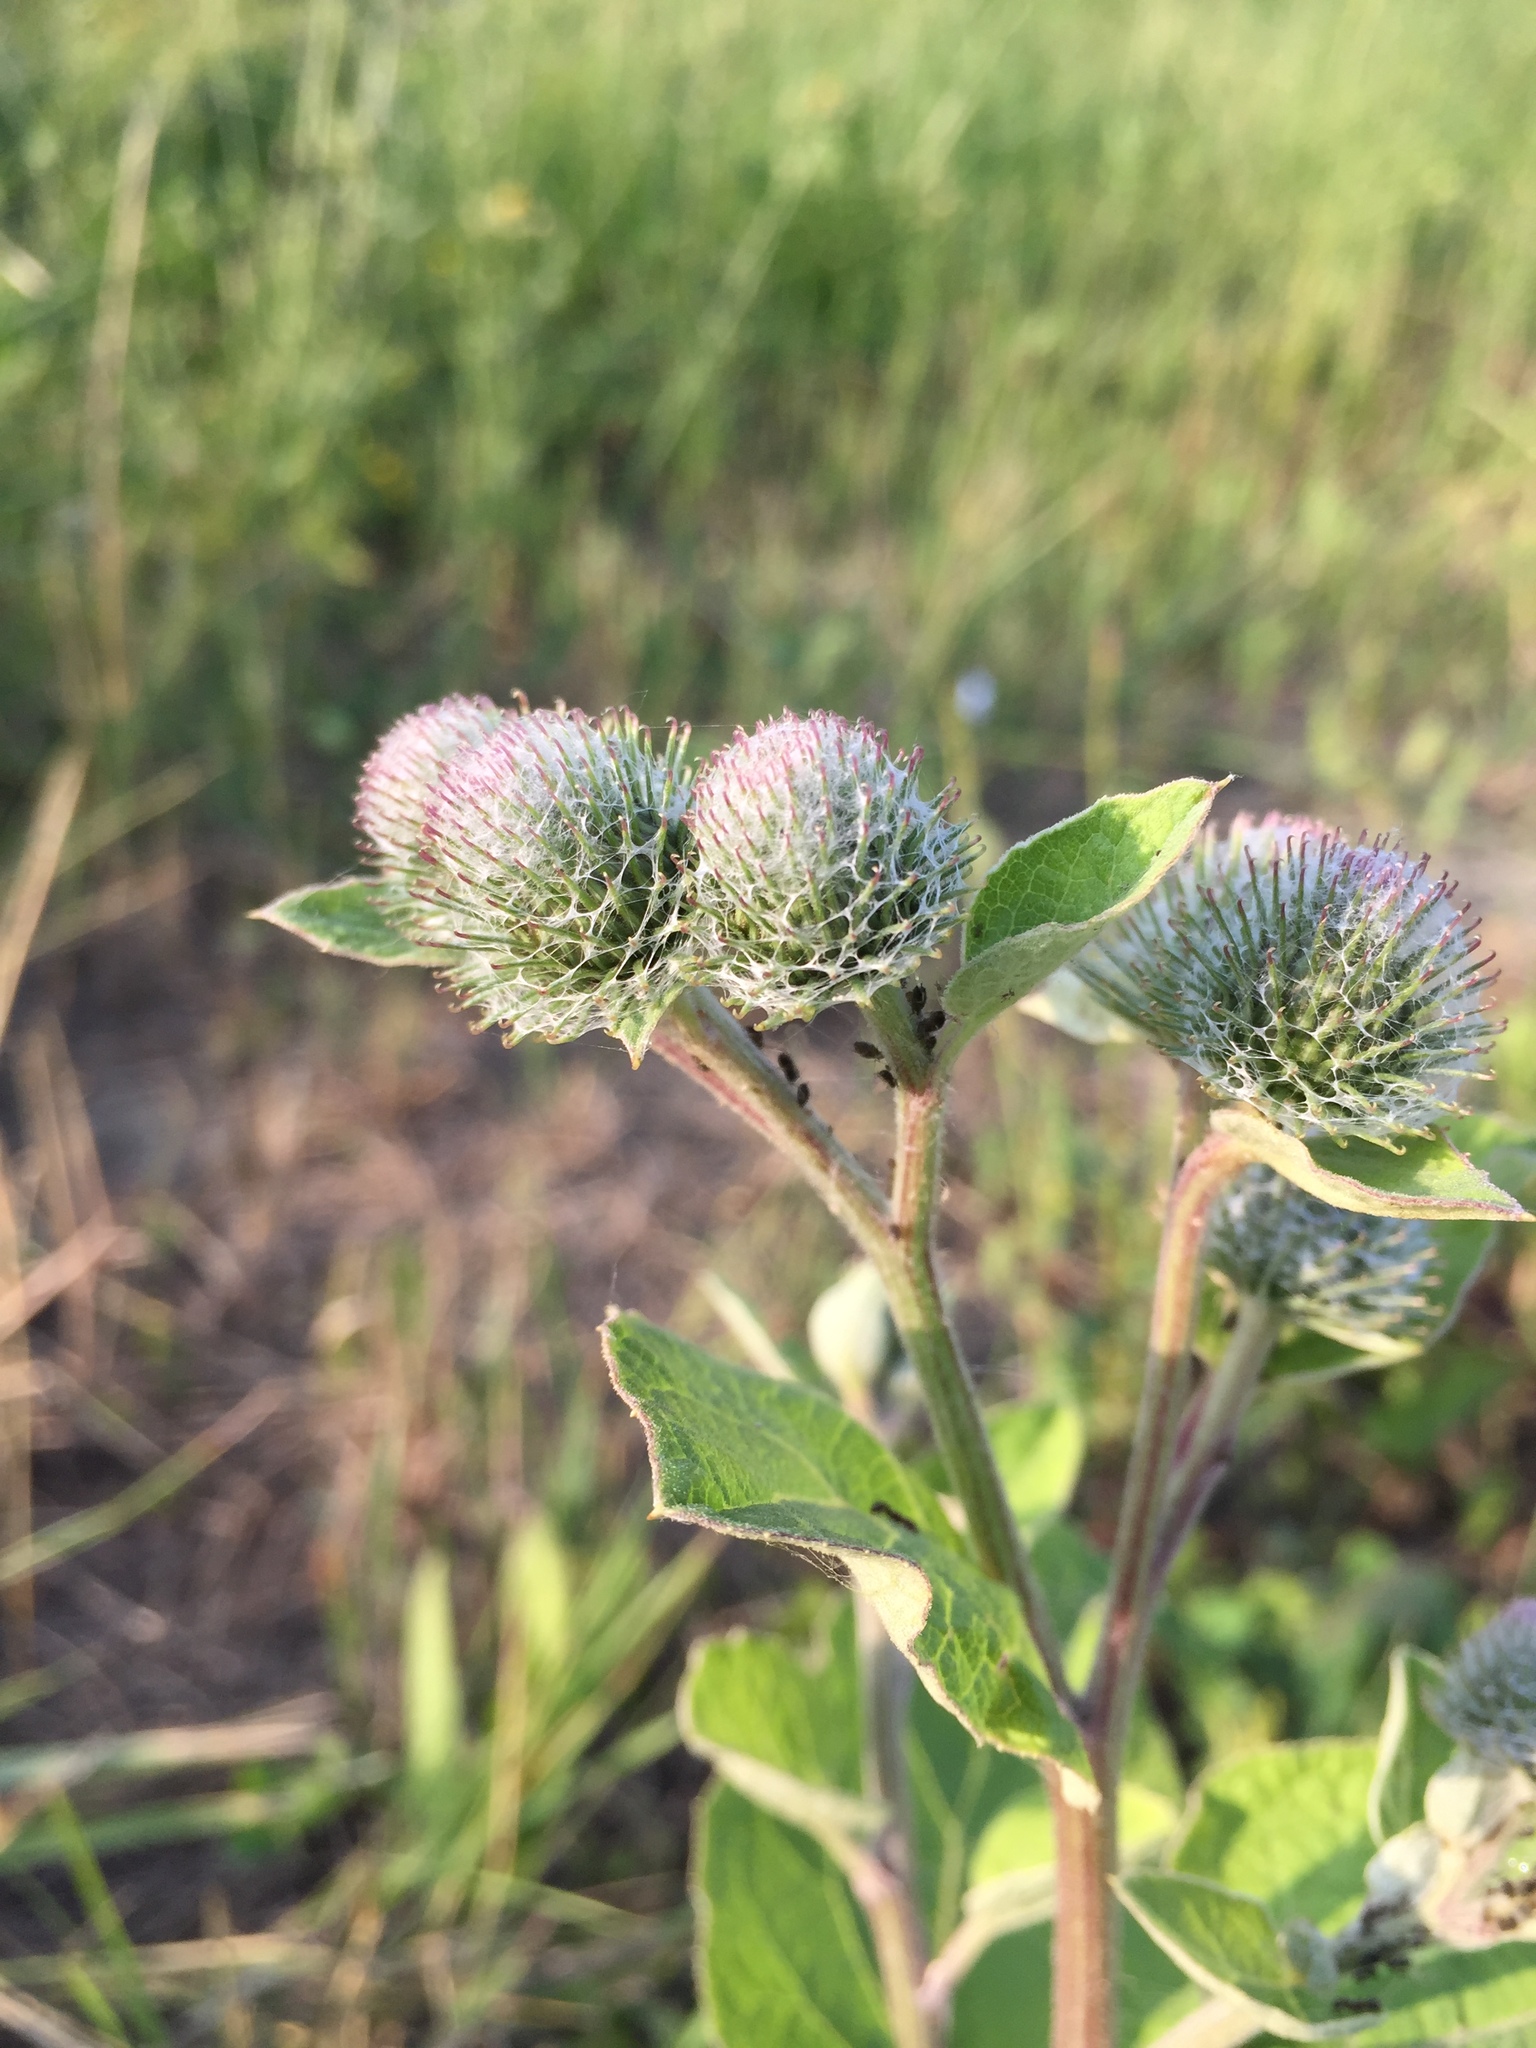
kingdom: Plantae
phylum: Tracheophyta
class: Magnoliopsida
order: Asterales
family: Asteraceae
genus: Arctium
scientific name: Arctium tomentosum
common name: Woolly burdock
